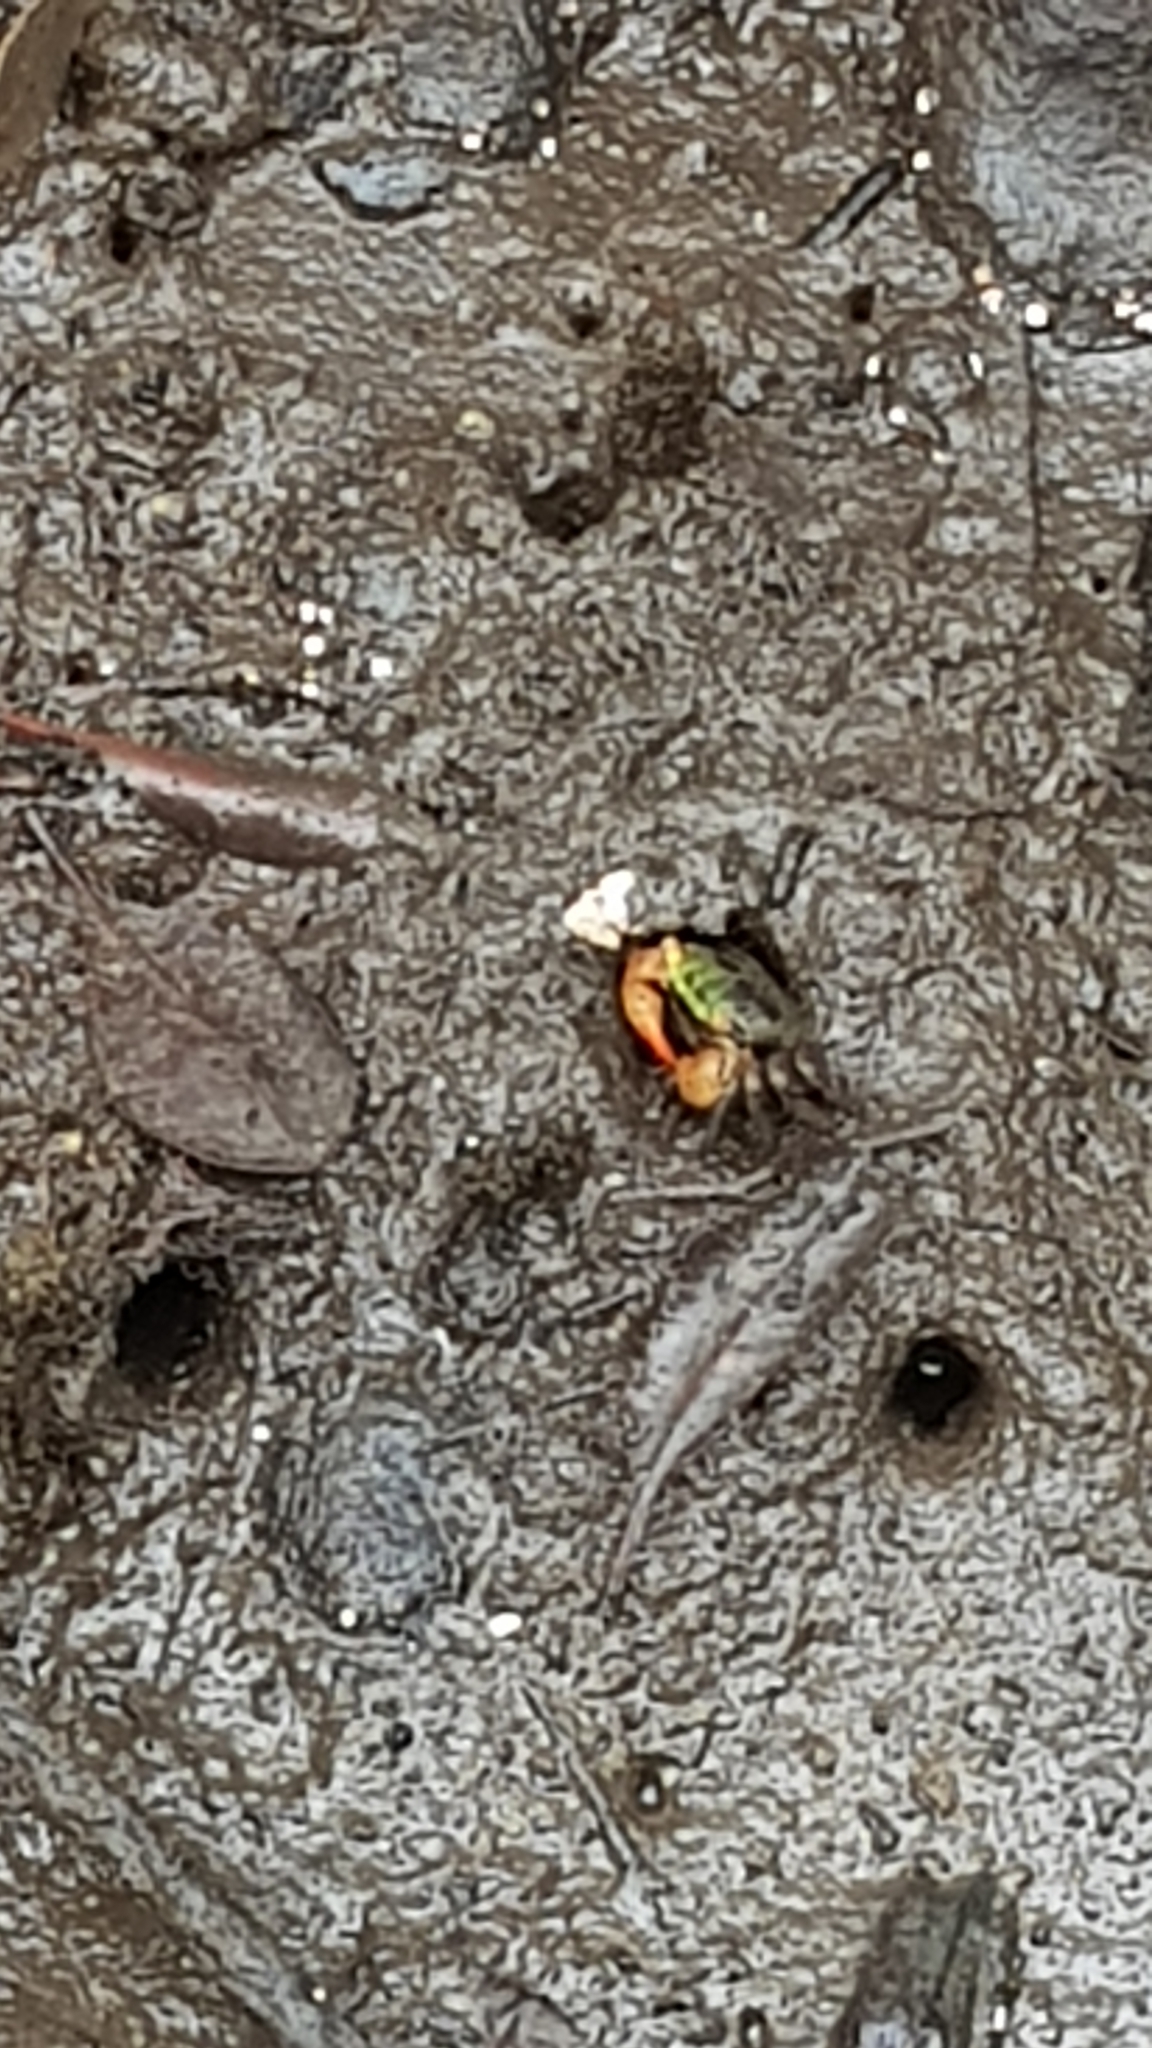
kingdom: Animalia
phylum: Arthropoda
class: Malacostraca
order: Decapoda
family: Sesarmidae
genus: Parasesarma
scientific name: Parasesarma erythodactylum
